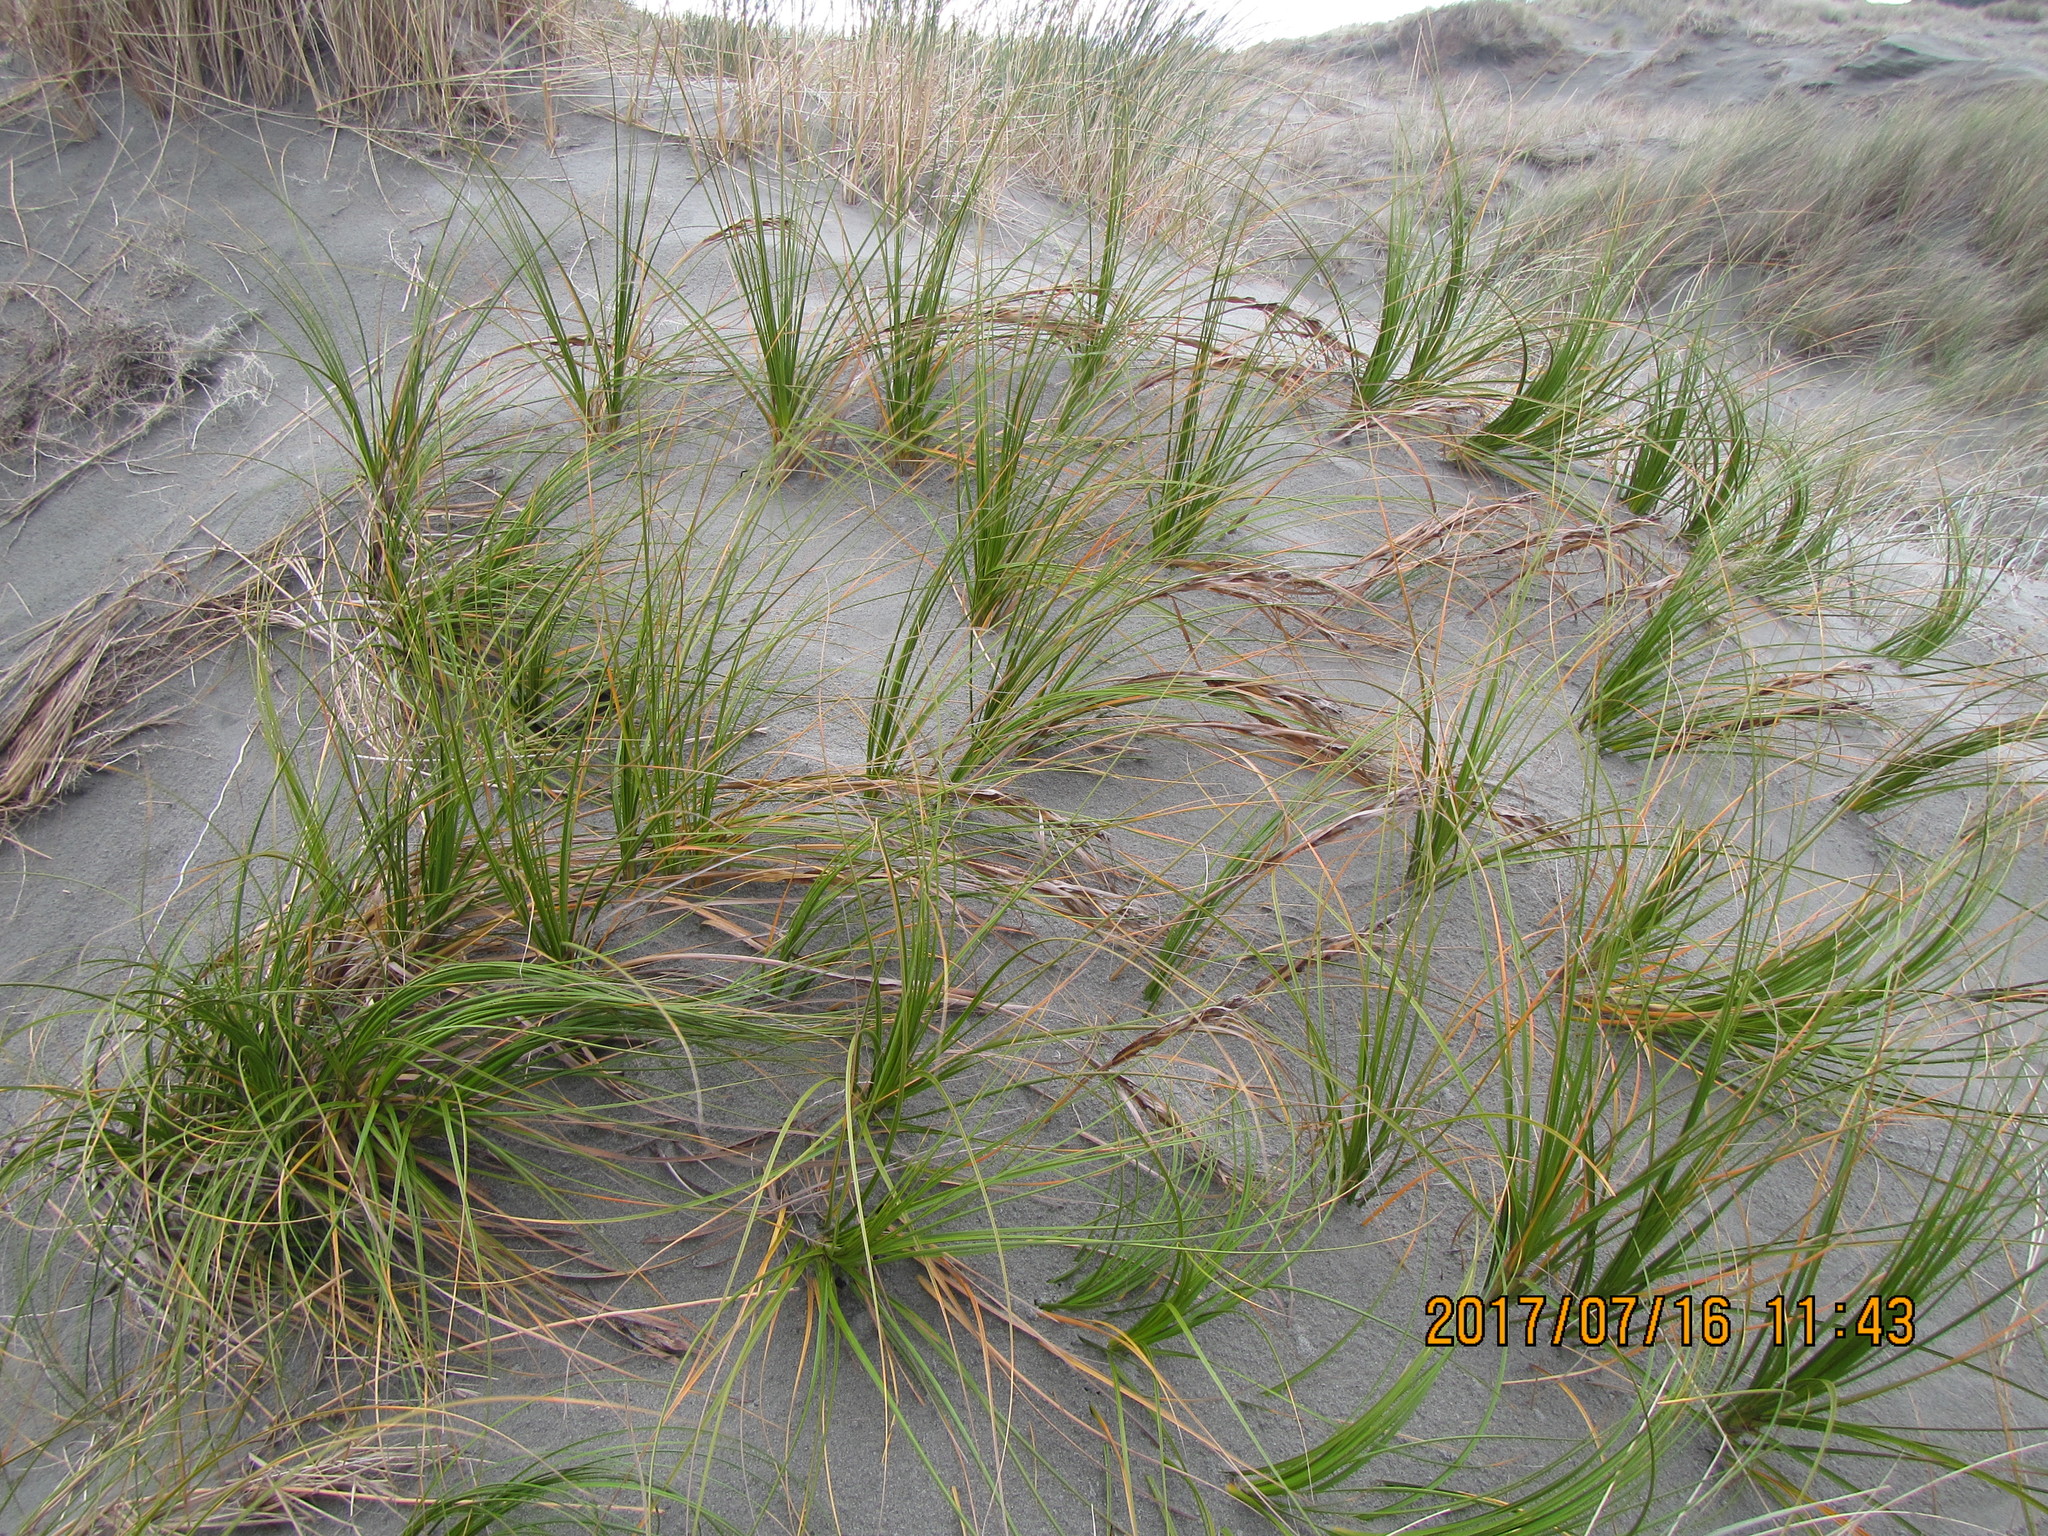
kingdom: Plantae
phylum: Tracheophyta
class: Liliopsida
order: Poales
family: Cyperaceae
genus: Ficinia
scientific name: Ficinia spiralis
